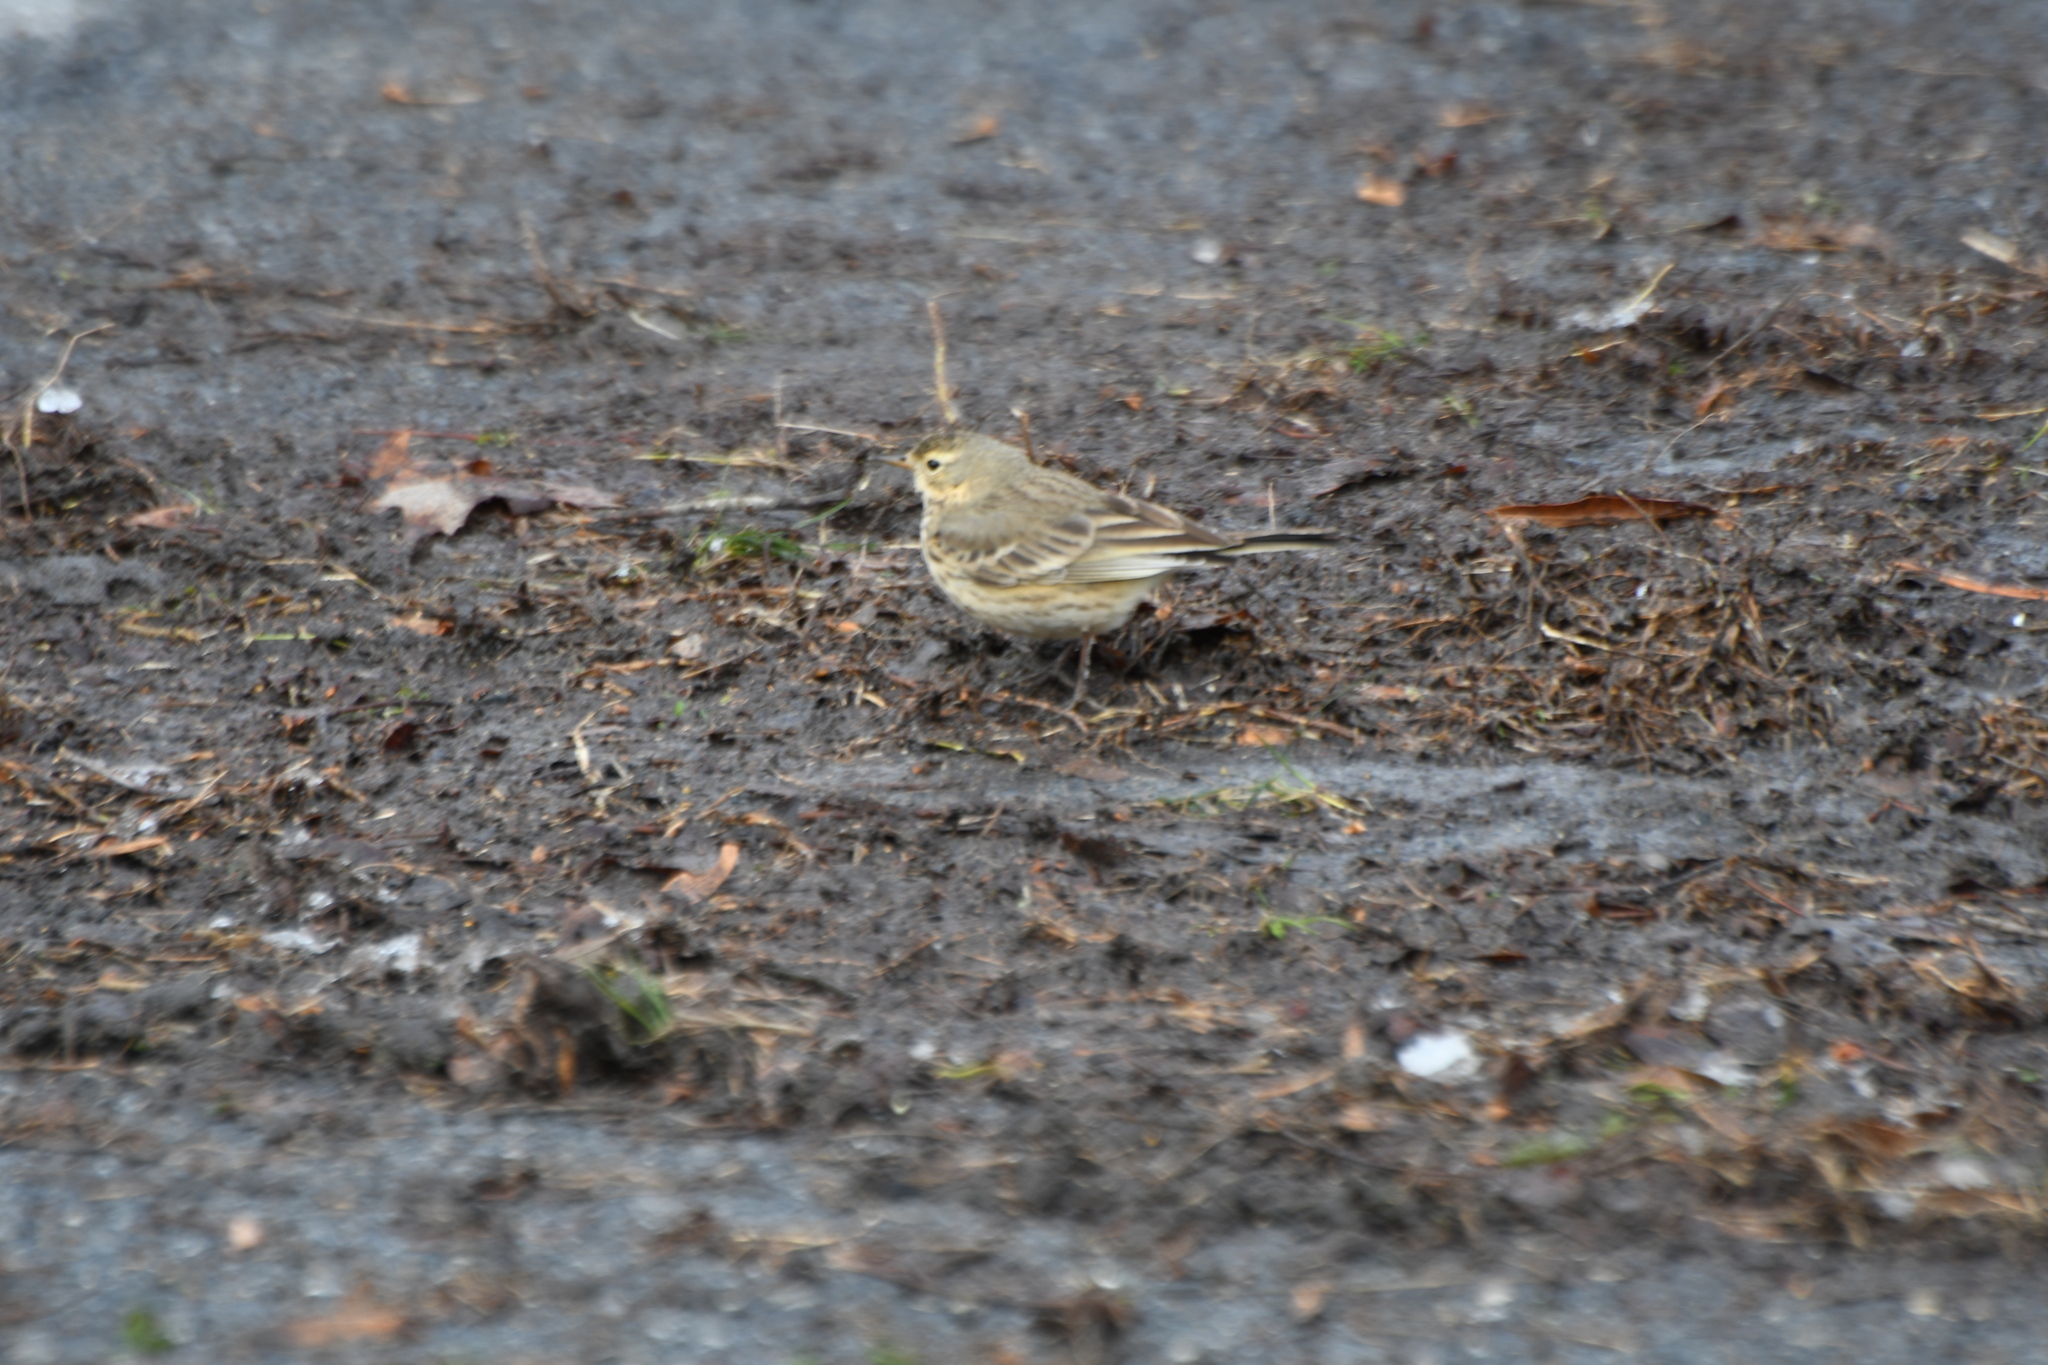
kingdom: Animalia
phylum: Chordata
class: Aves
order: Passeriformes
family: Motacillidae
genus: Anthus
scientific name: Anthus rubescens
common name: Buff-bellied pipit
